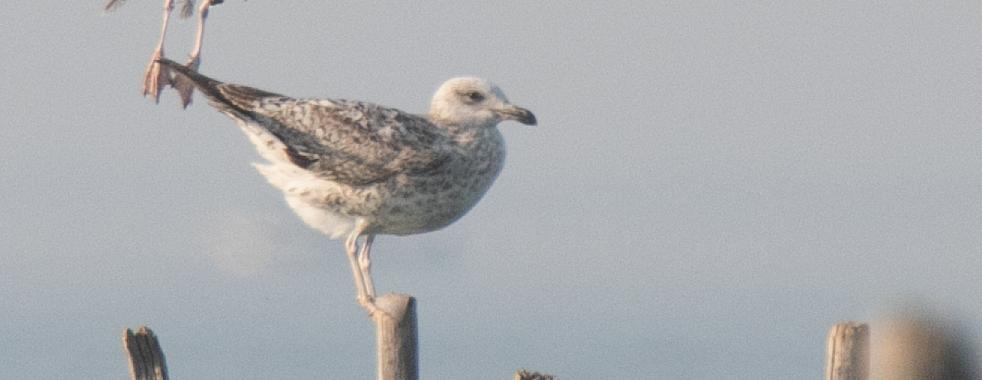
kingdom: Animalia
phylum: Chordata
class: Aves
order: Charadriiformes
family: Laridae
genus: Larus
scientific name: Larus michahellis
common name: Yellow-legged gull
